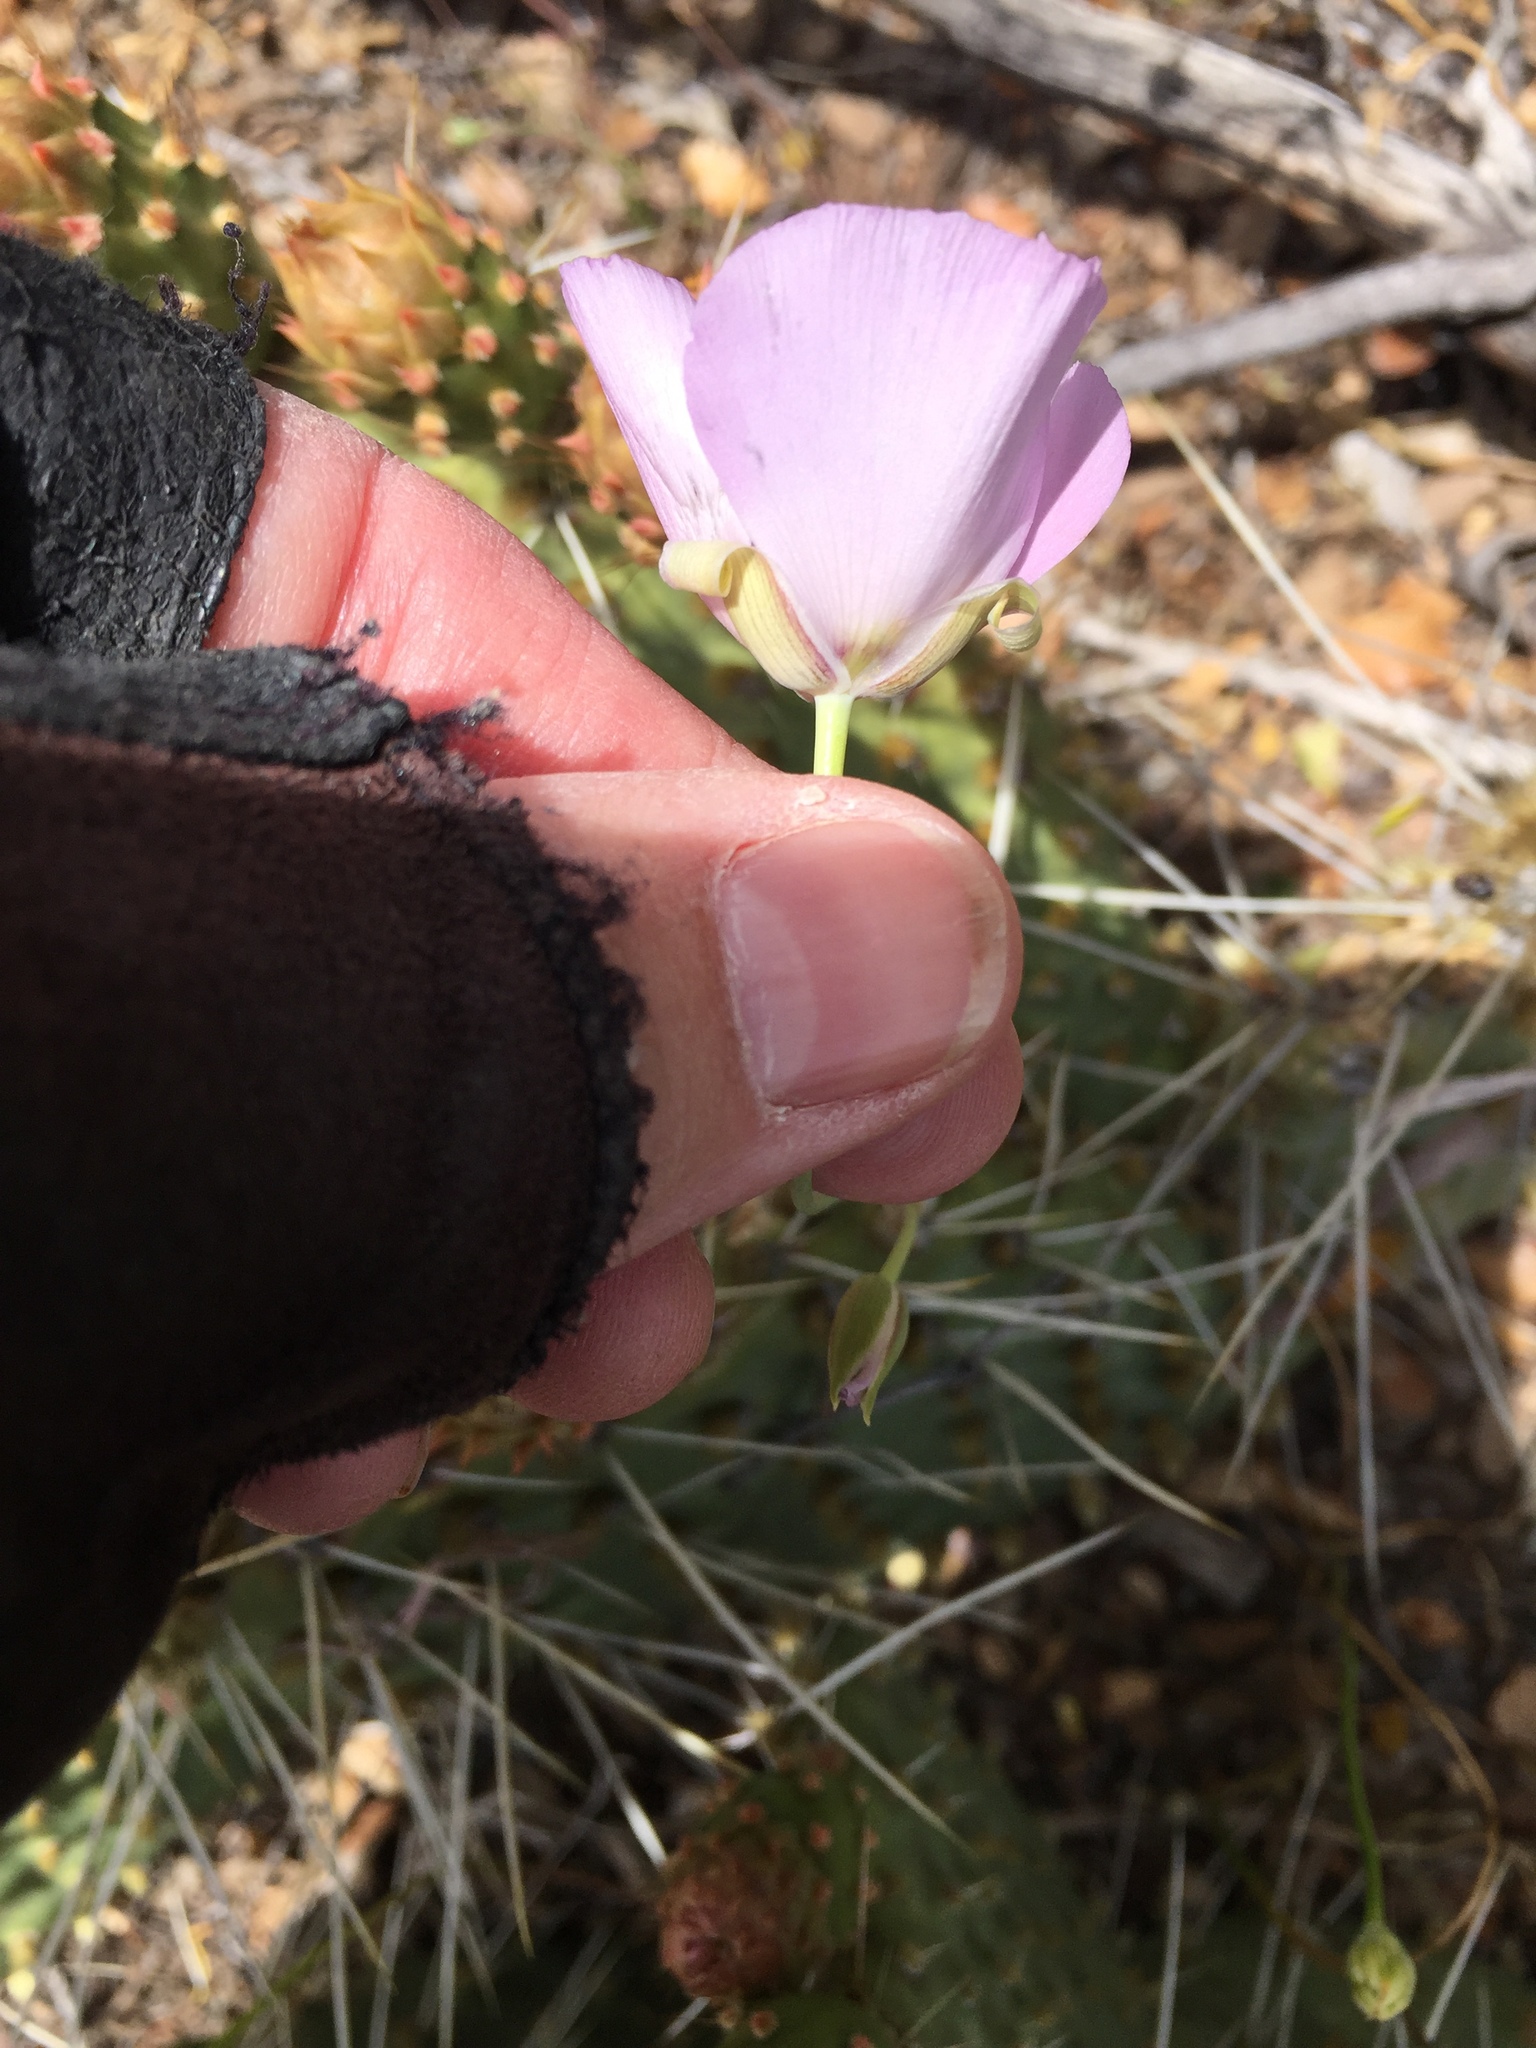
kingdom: Plantae
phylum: Tracheophyta
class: Liliopsida
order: Liliales
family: Liliaceae
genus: Calochortus
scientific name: Calochortus palmeri
